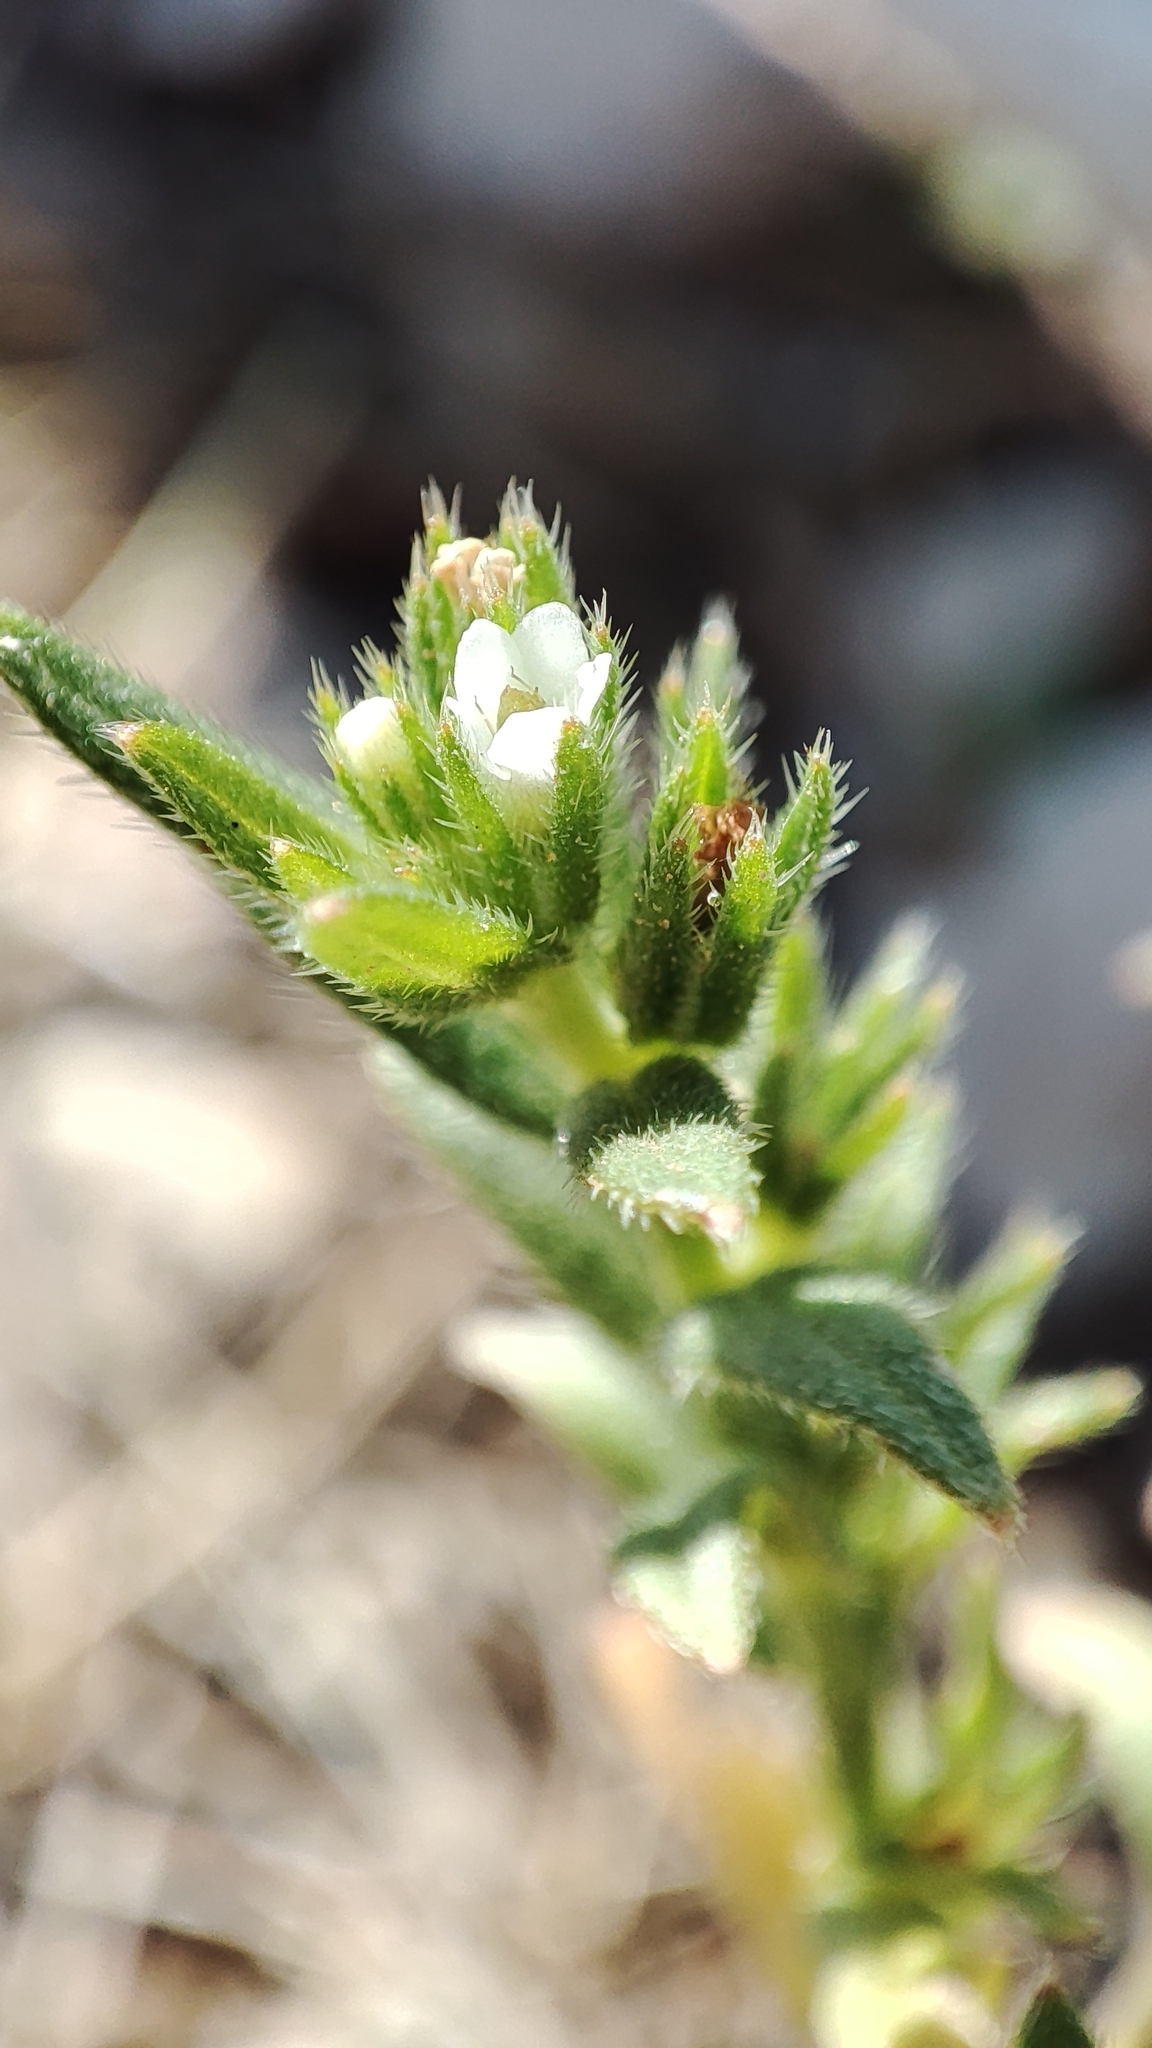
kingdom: Plantae
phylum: Tracheophyta
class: Magnoliopsida
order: Boraginales
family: Boraginaceae
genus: Buglossoides
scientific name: Buglossoides arvensis
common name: Corn gromwell
